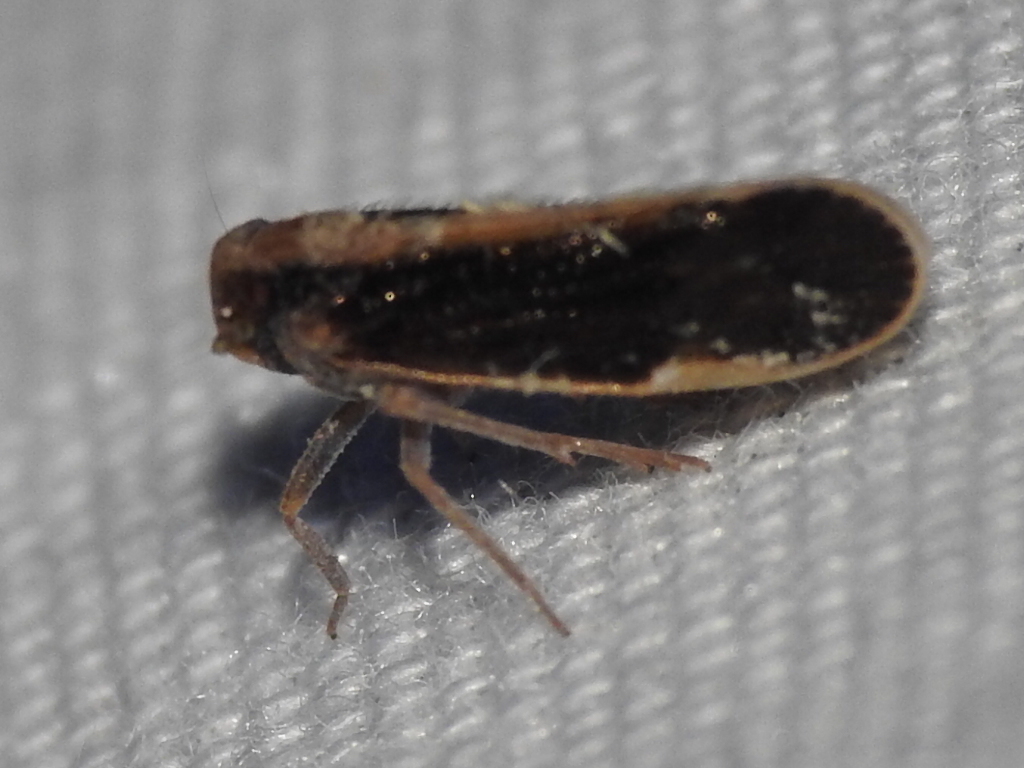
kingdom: Animalia
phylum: Arthropoda
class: Insecta
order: Hemiptera
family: Cixiidae
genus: Pintalia
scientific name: Pintalia delicata
